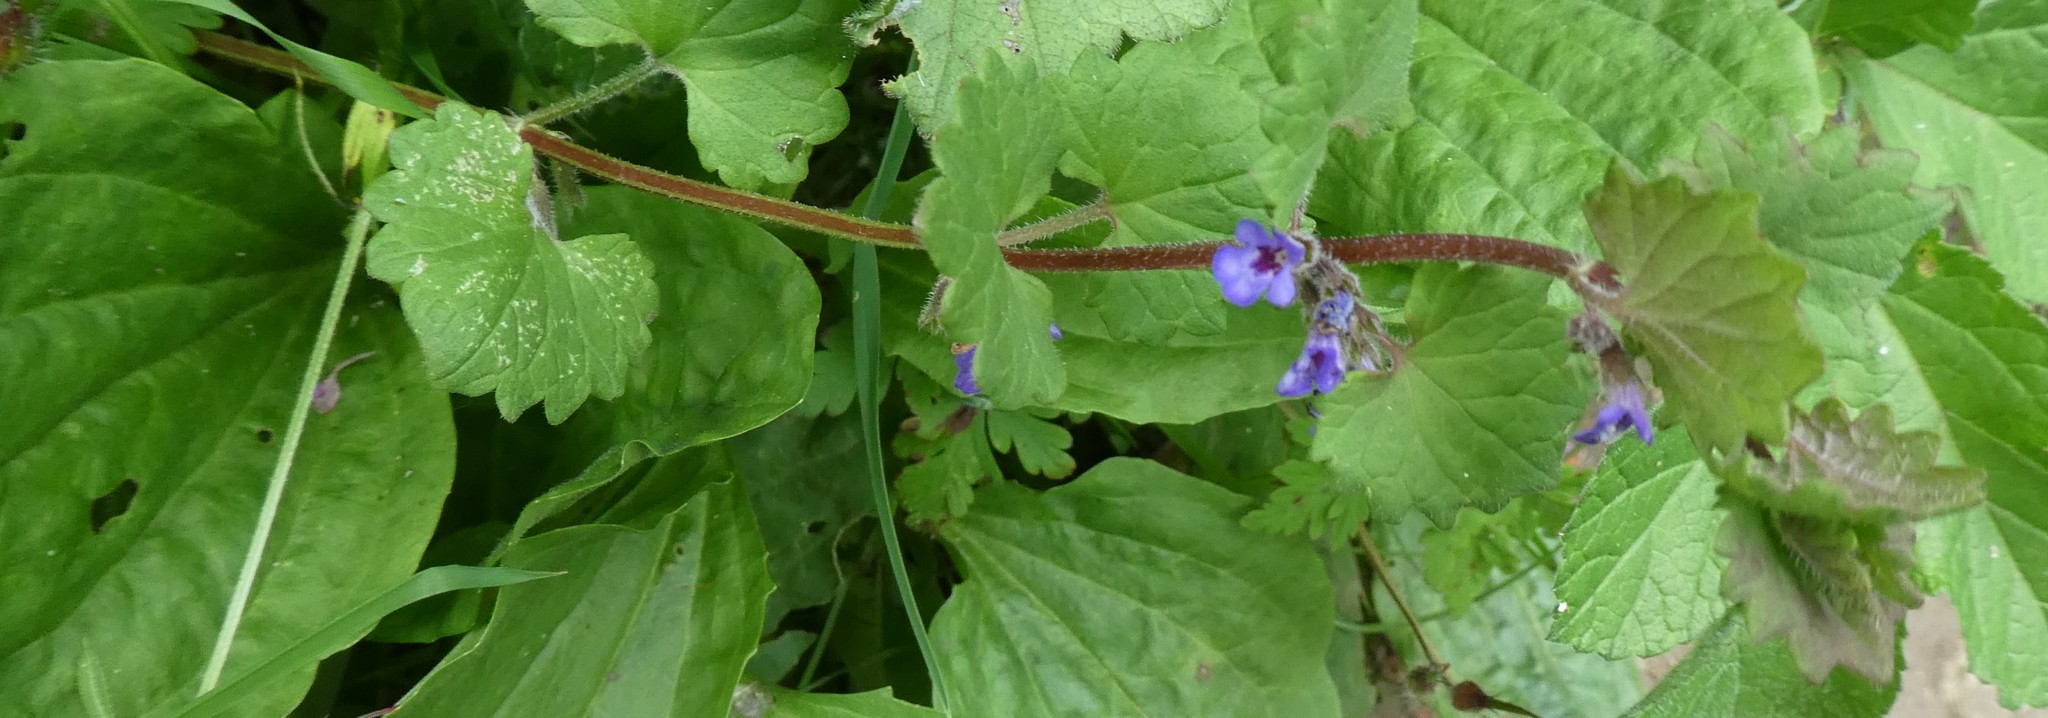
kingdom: Plantae
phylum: Tracheophyta
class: Magnoliopsida
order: Lamiales
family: Lamiaceae
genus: Glechoma
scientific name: Glechoma hederacea
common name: Ground ivy
